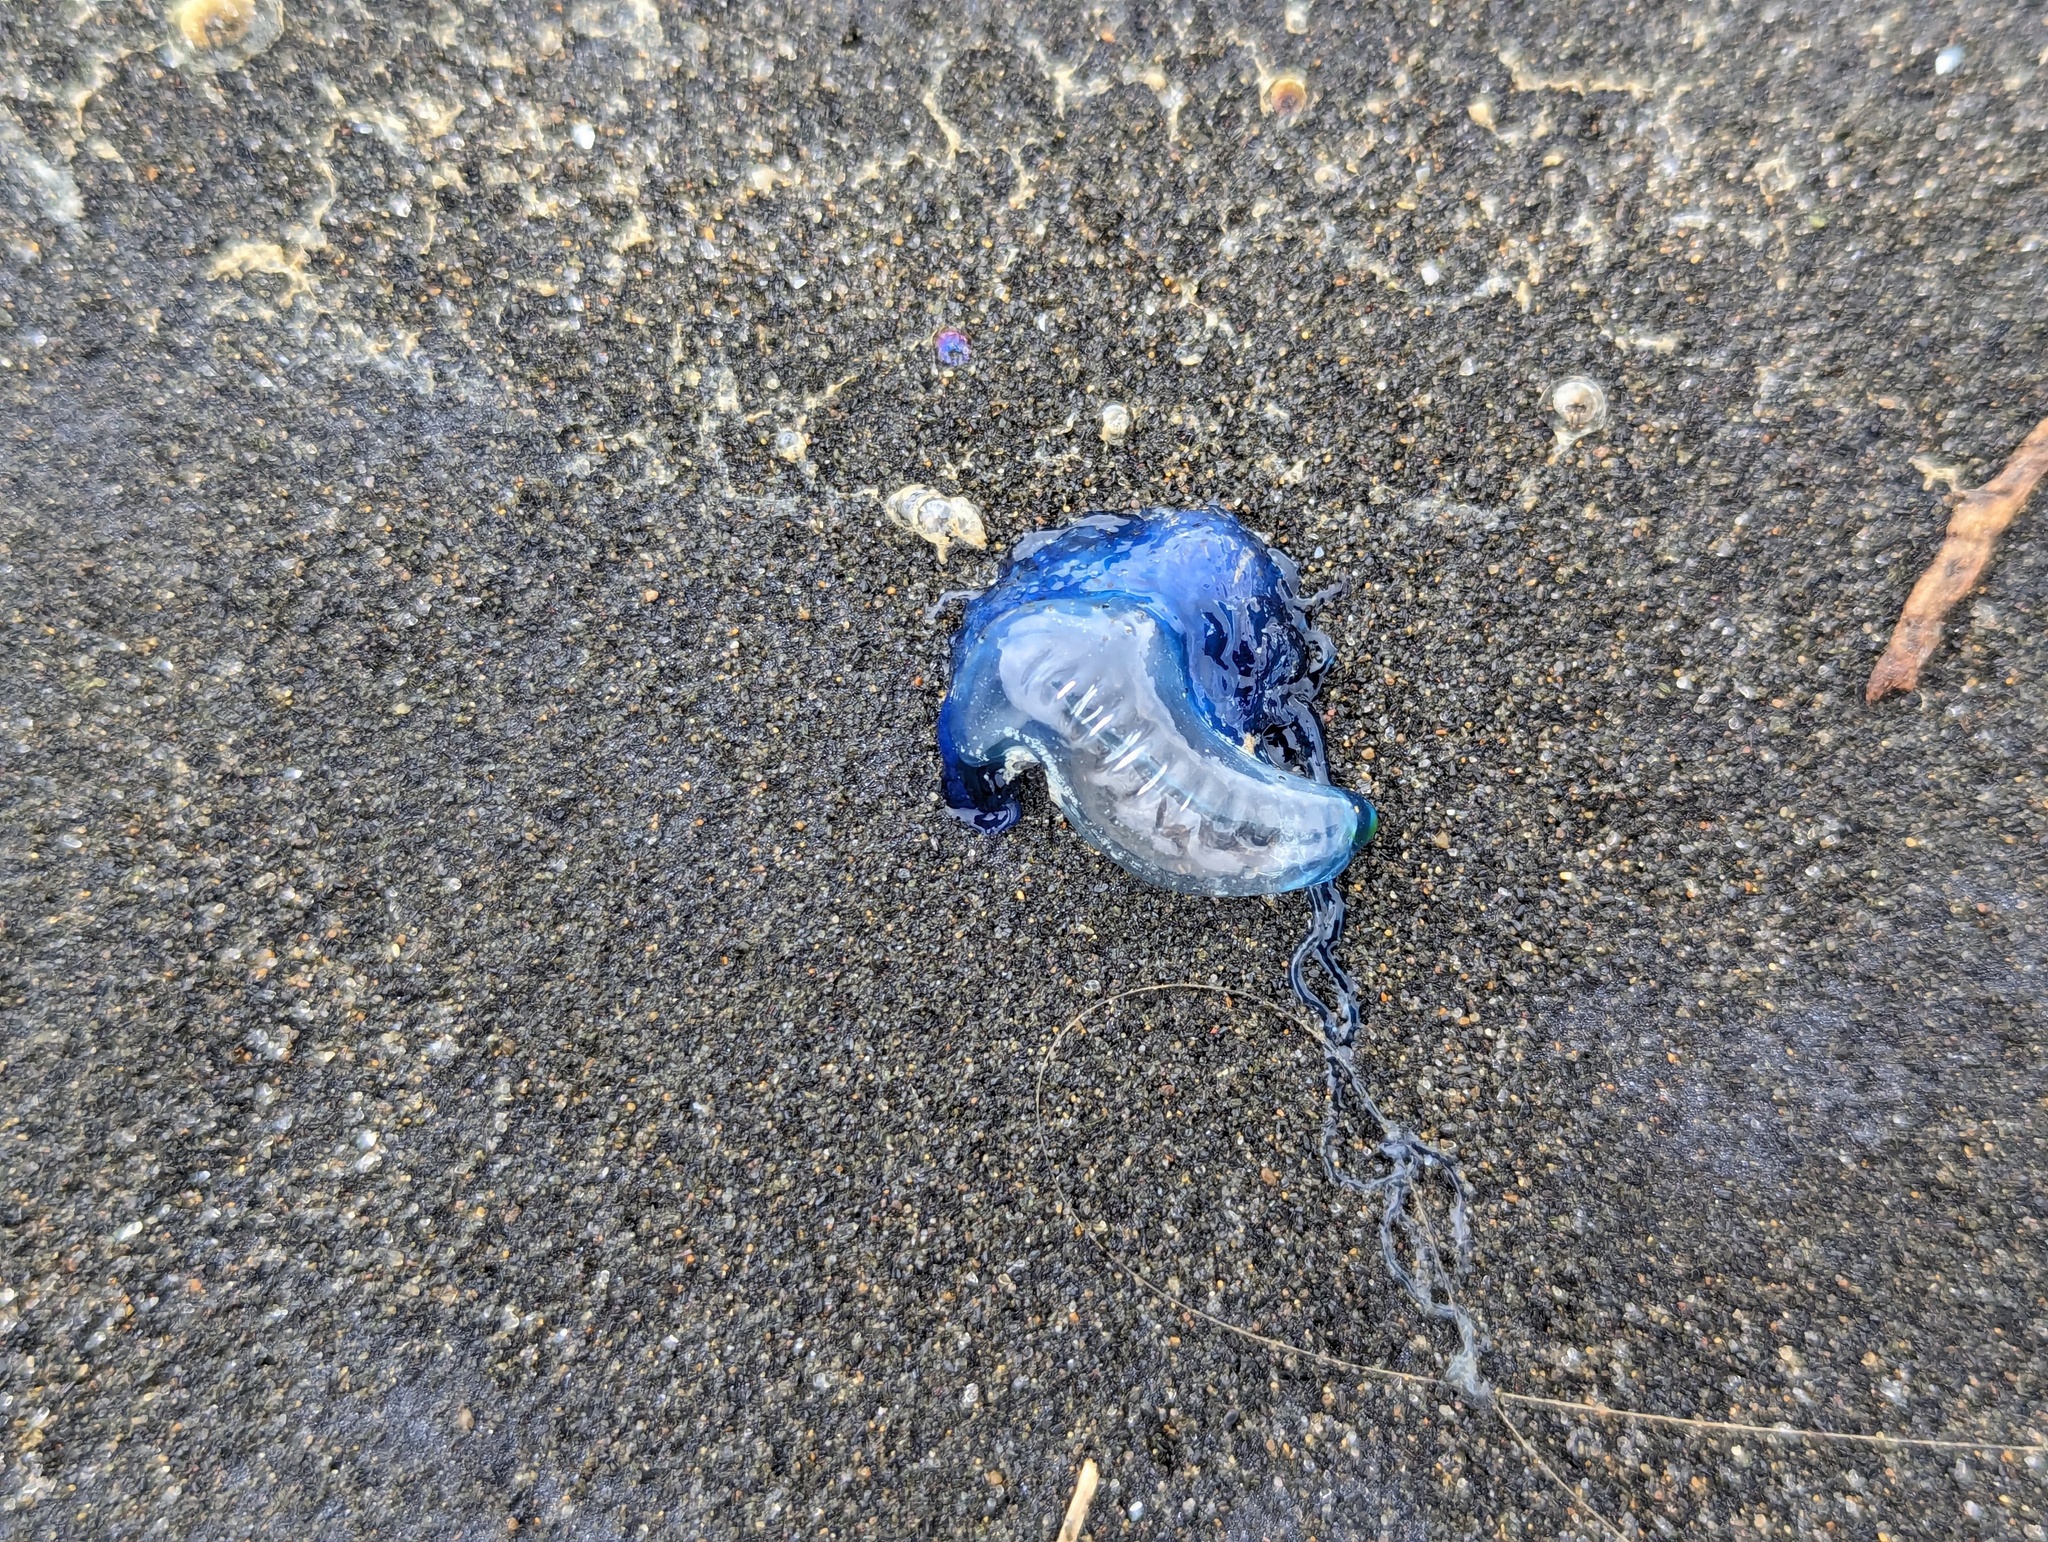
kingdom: Animalia
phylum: Cnidaria
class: Hydrozoa
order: Siphonophorae
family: Physaliidae
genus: Physalia
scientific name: Physalia physalis
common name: Portuguese man-of-war
